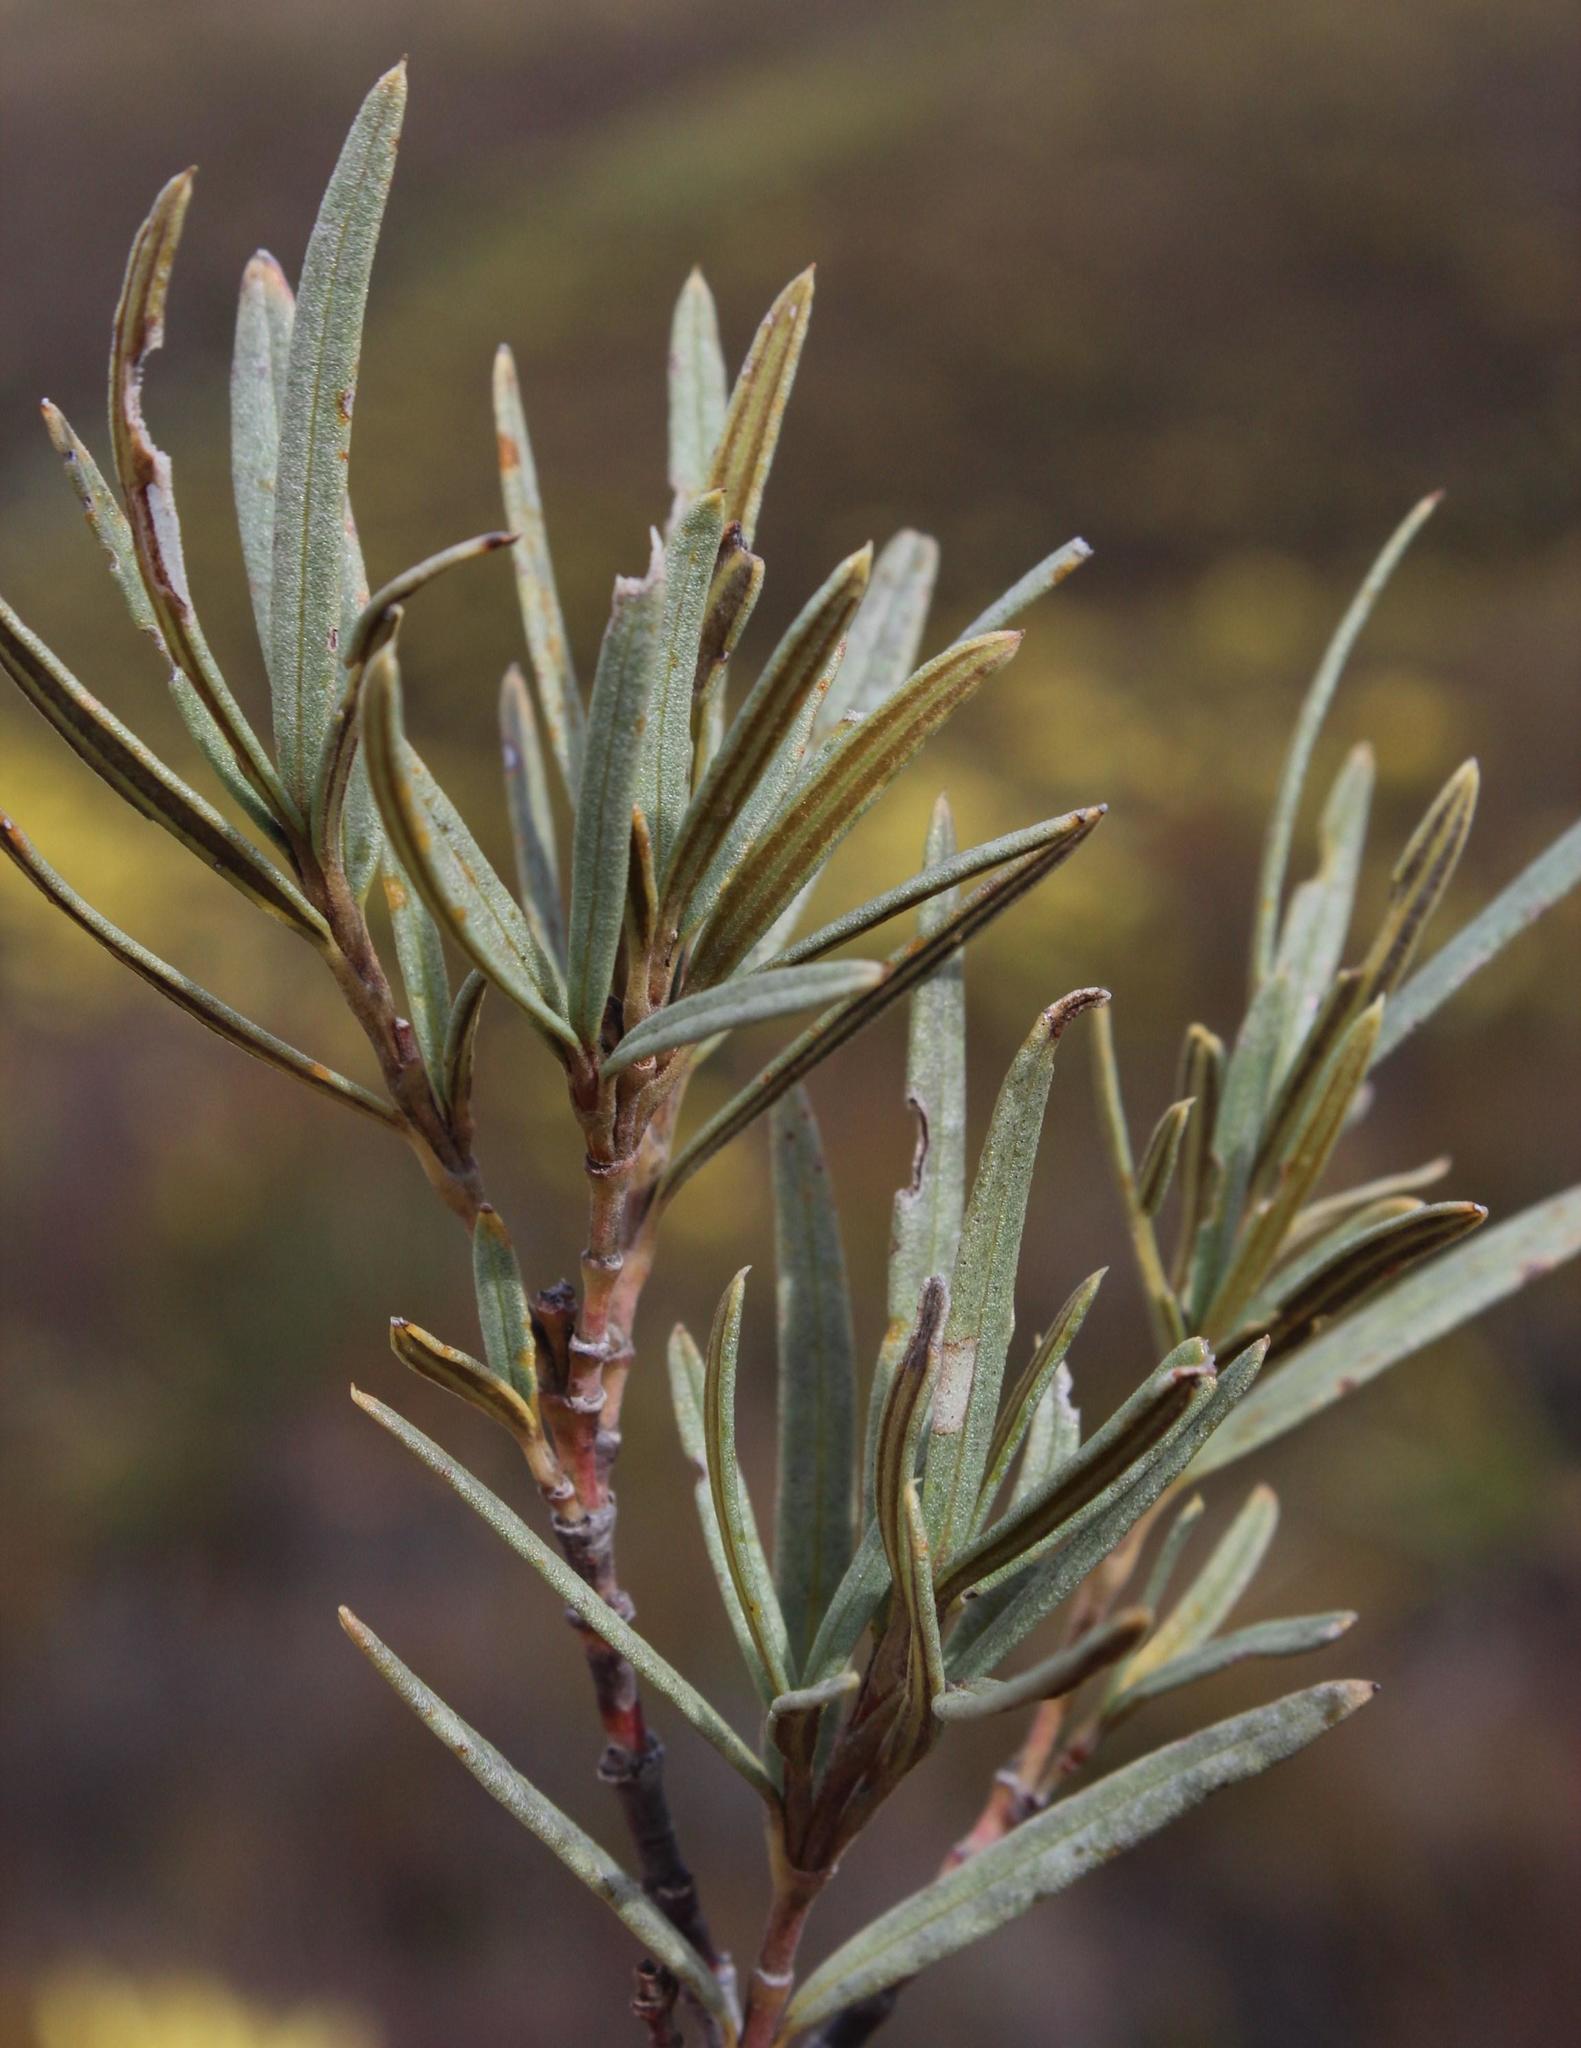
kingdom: Plantae
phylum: Tracheophyta
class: Magnoliopsida
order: Cornales
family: Grubbiaceae
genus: Grubbia
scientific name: Grubbia tomentosa
